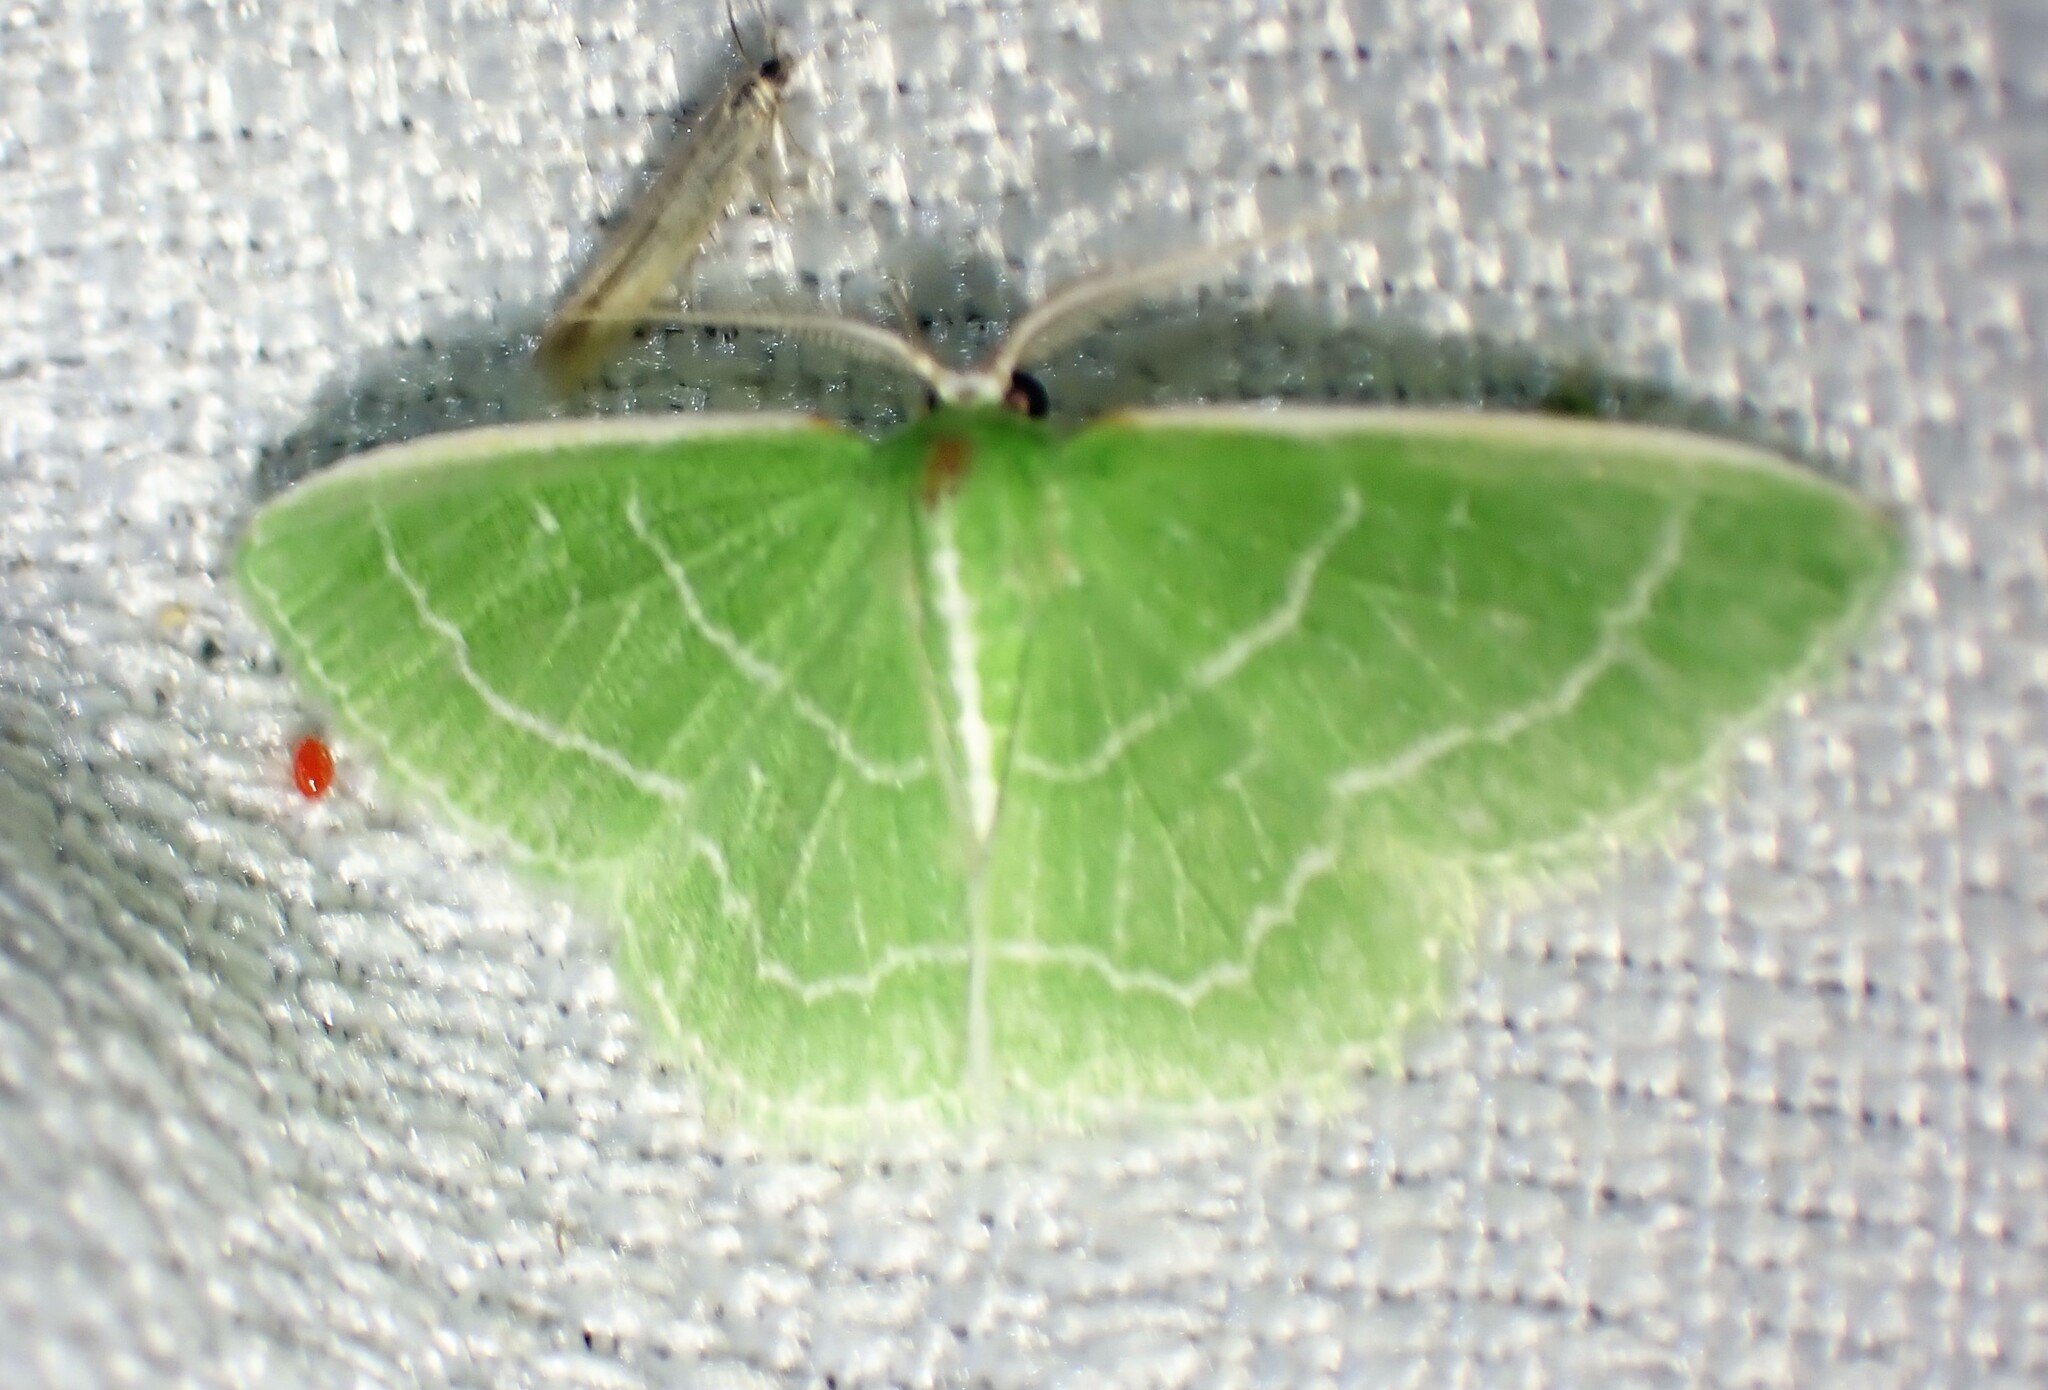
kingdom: Animalia
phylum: Arthropoda
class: Insecta
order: Lepidoptera
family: Geometridae
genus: Synchlora
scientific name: Synchlora aerata
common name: Wavy-lined emerald
